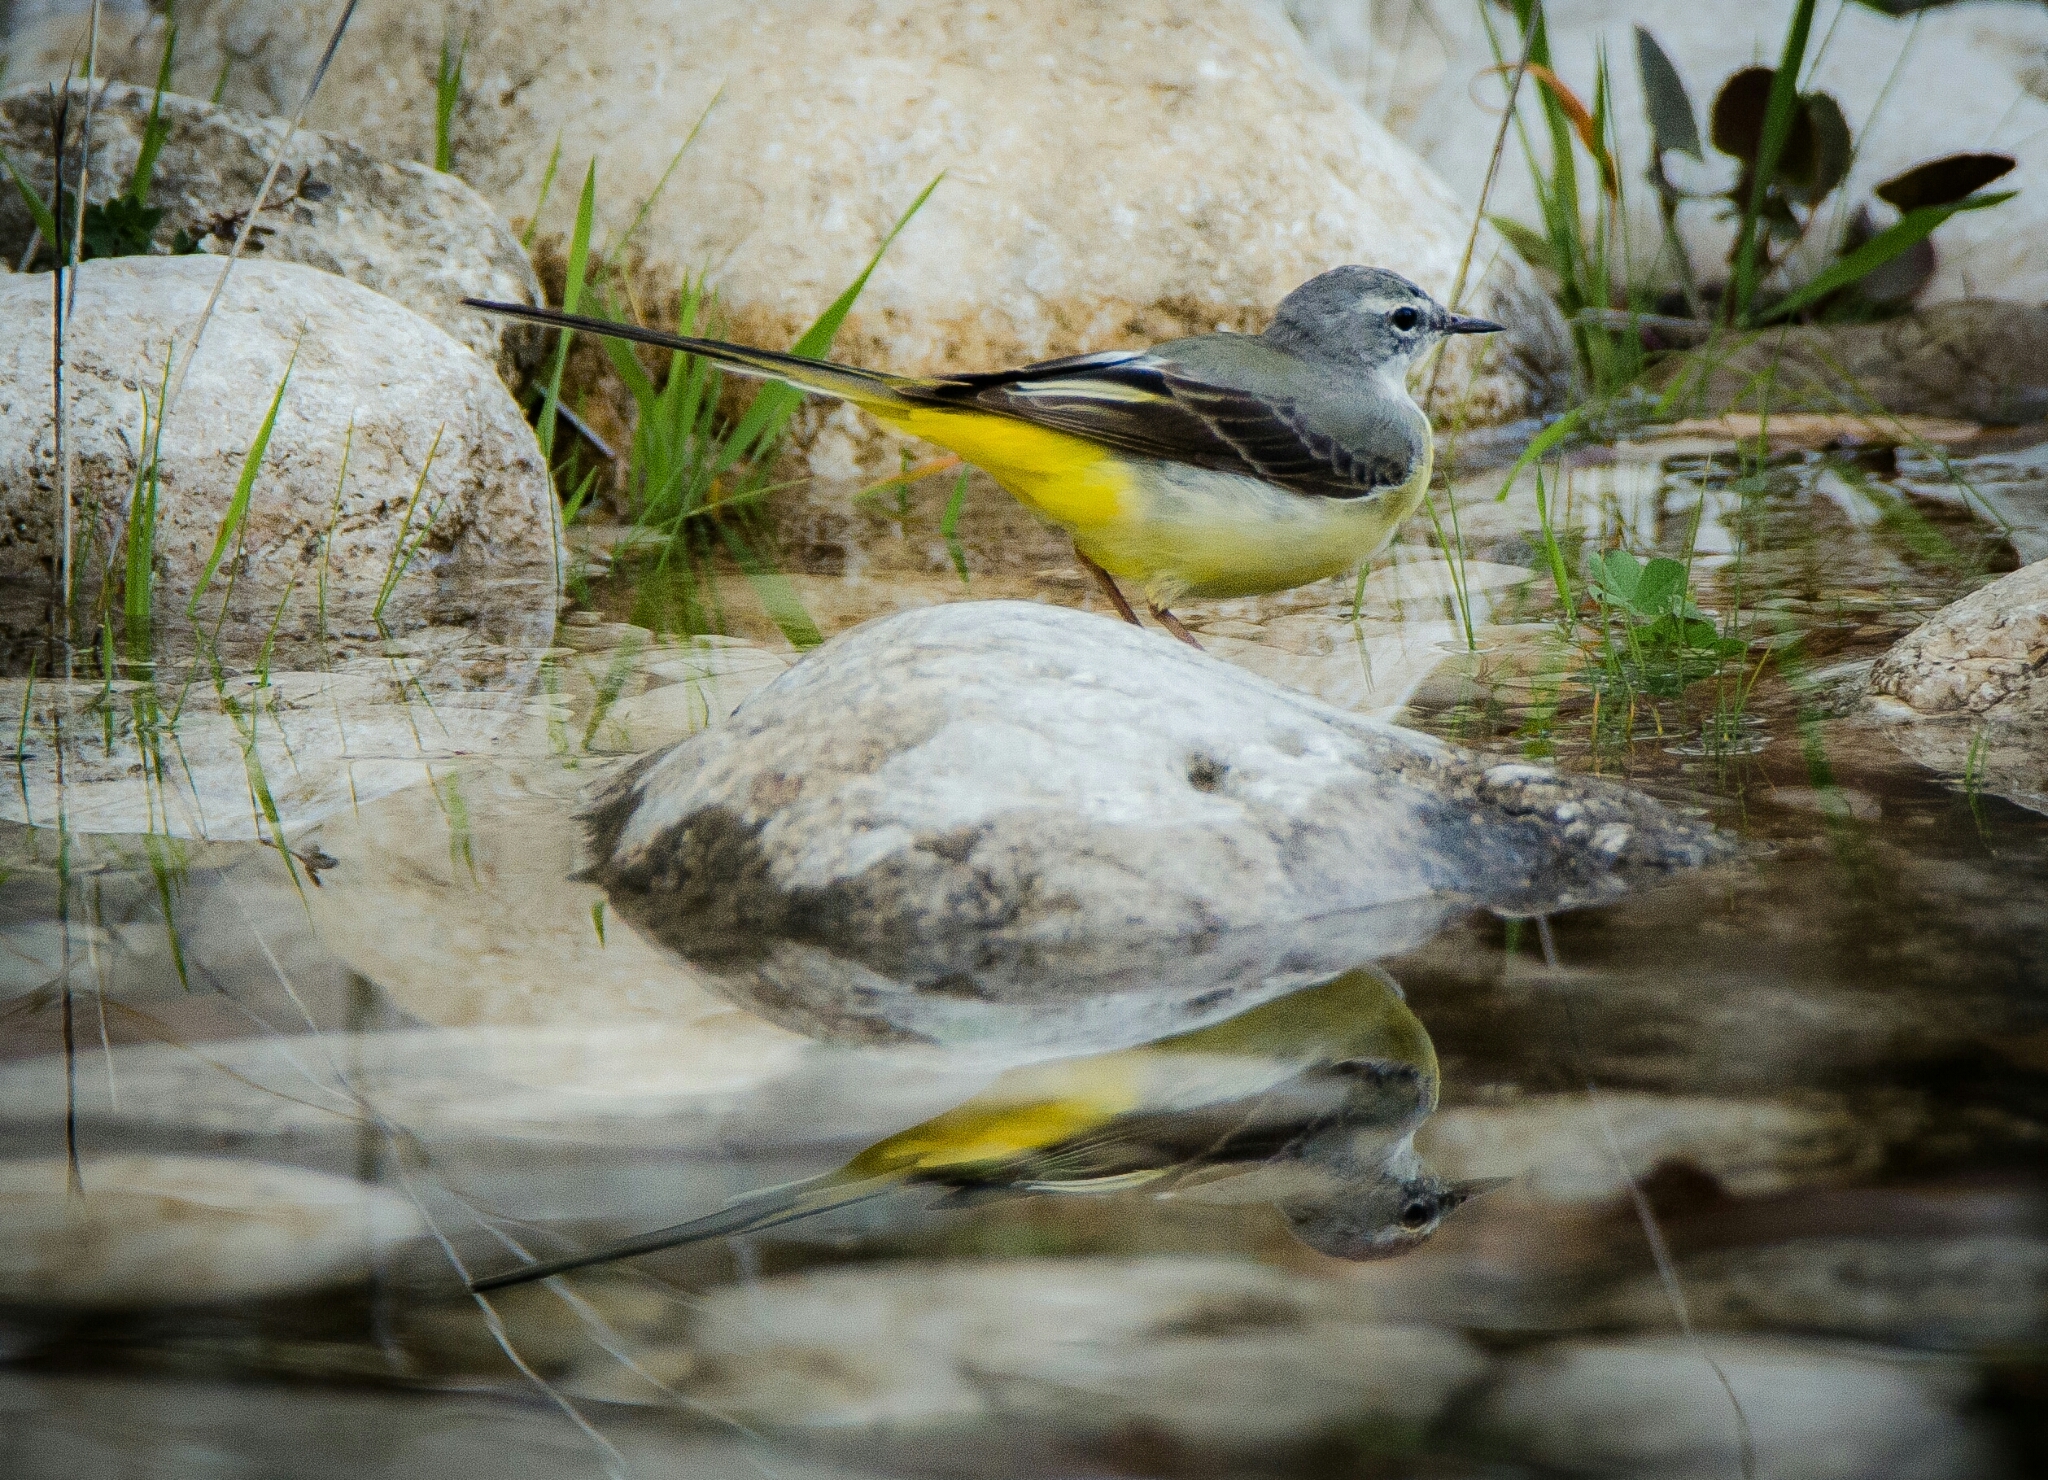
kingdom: Animalia
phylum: Chordata
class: Aves
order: Passeriformes
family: Motacillidae
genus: Motacilla
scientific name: Motacilla cinerea
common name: Grey wagtail
